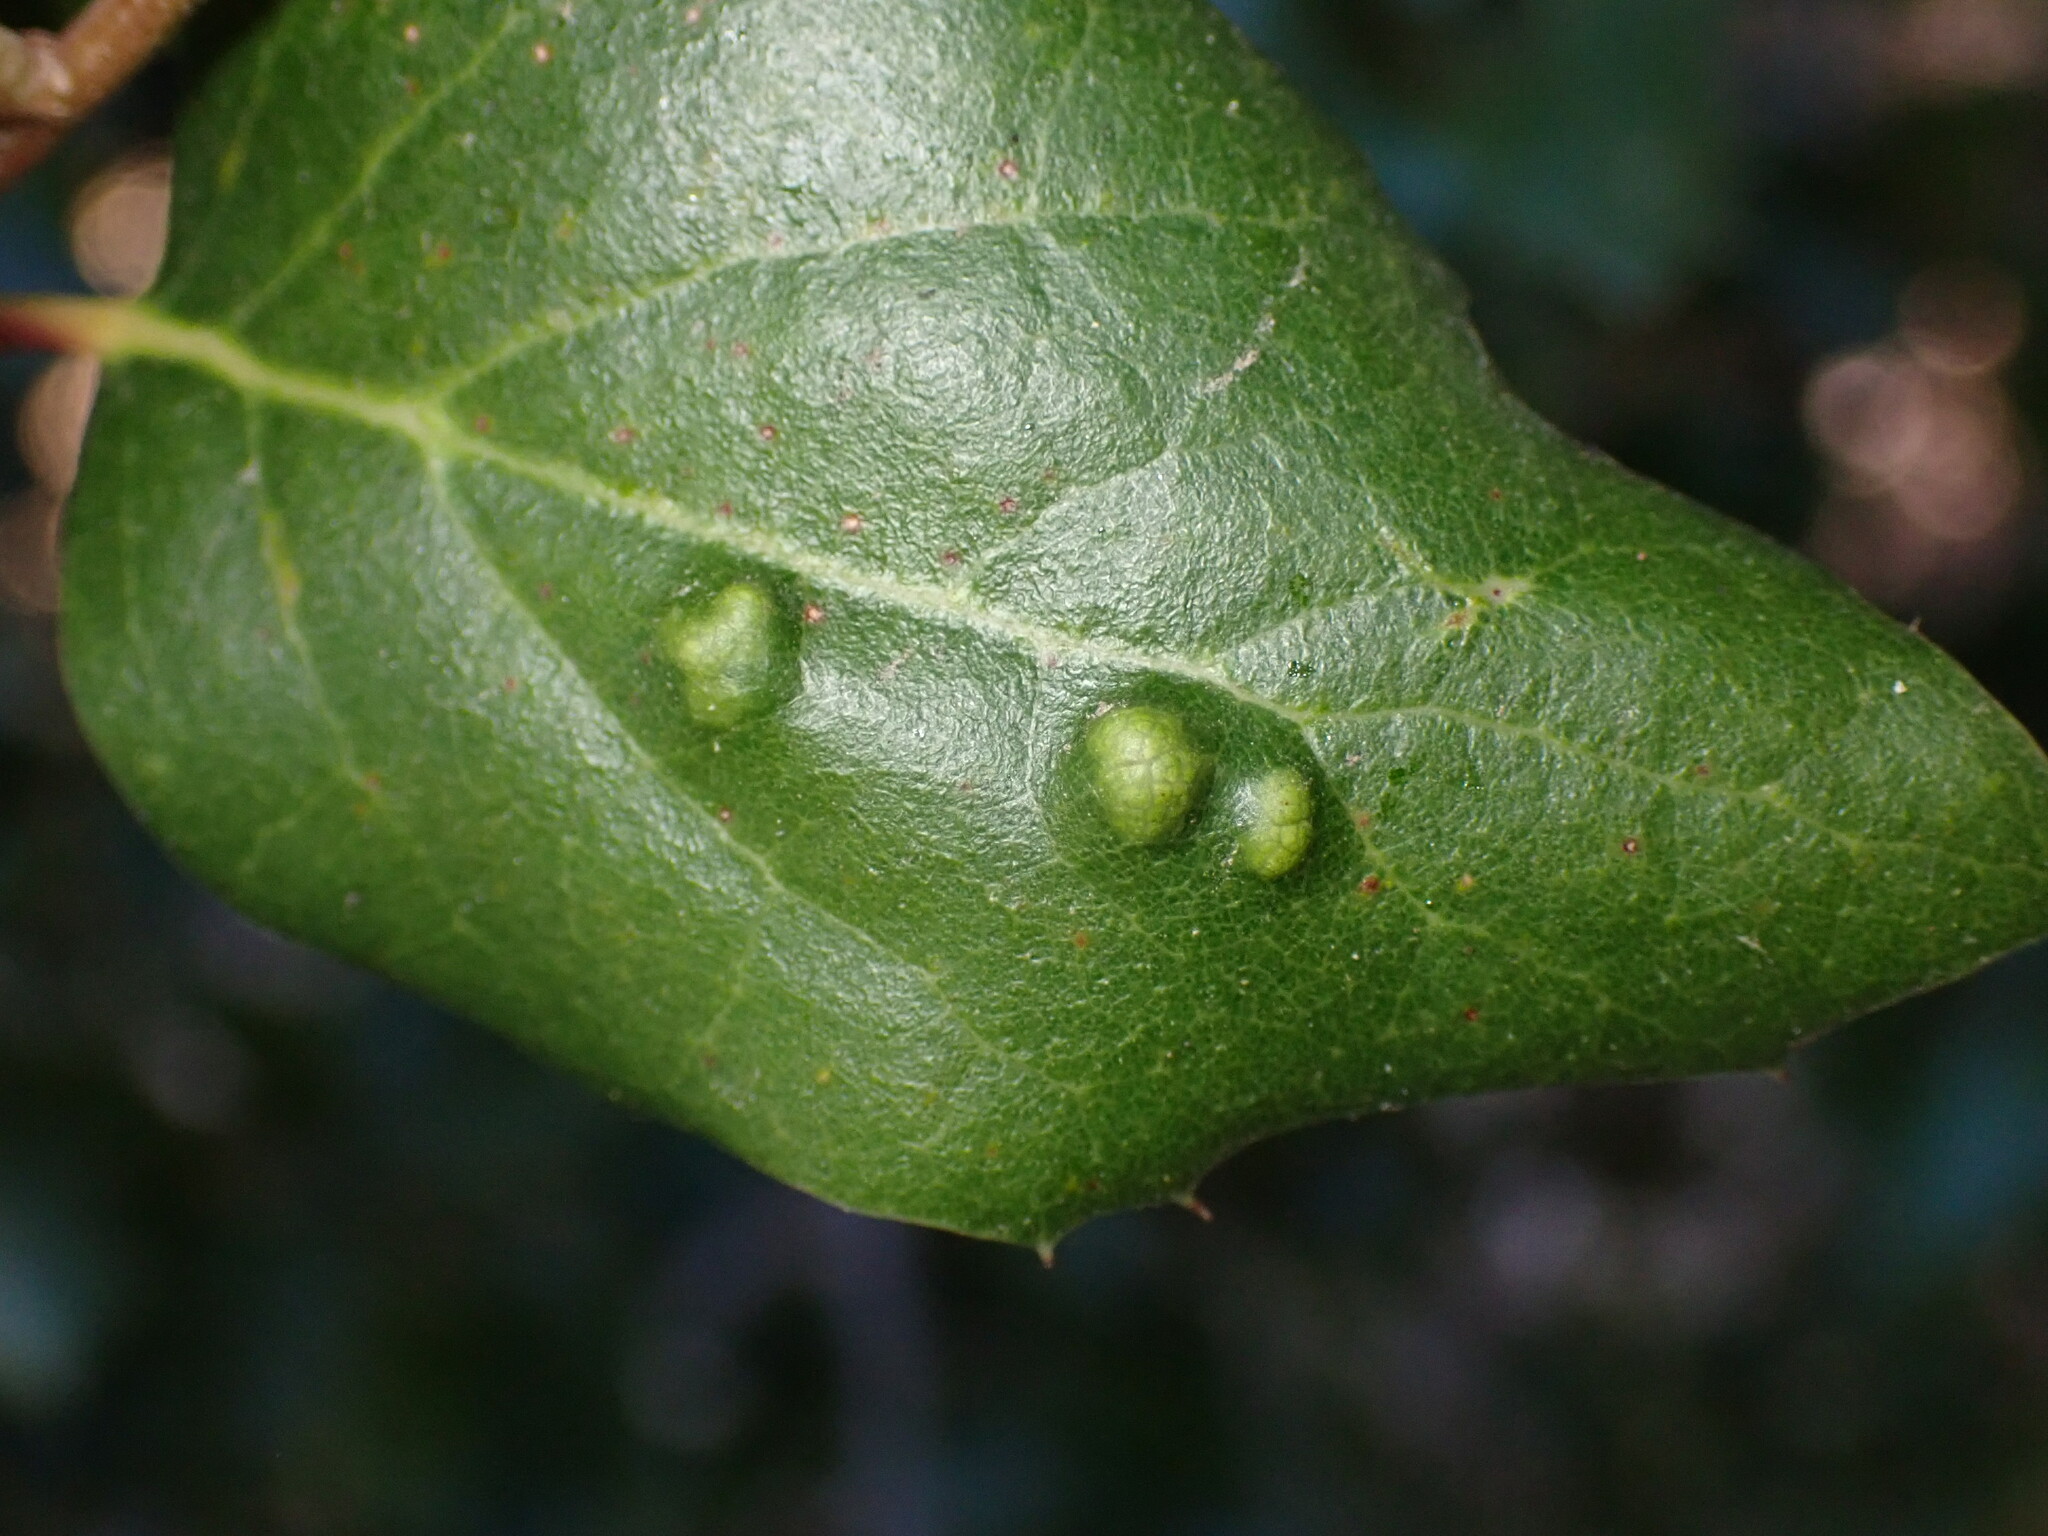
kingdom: Animalia
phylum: Arthropoda
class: Arachnida
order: Trombidiformes
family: Eriophyidae
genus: Aceria
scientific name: Aceria
